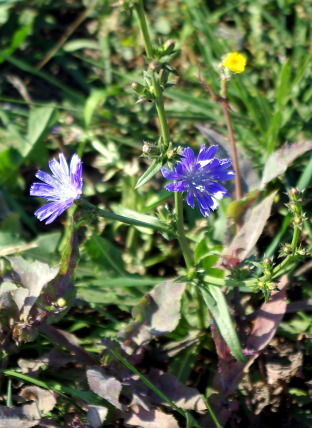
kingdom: Plantae
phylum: Tracheophyta
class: Magnoliopsida
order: Asterales
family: Asteraceae
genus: Cichorium
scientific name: Cichorium intybus
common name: Chicory
